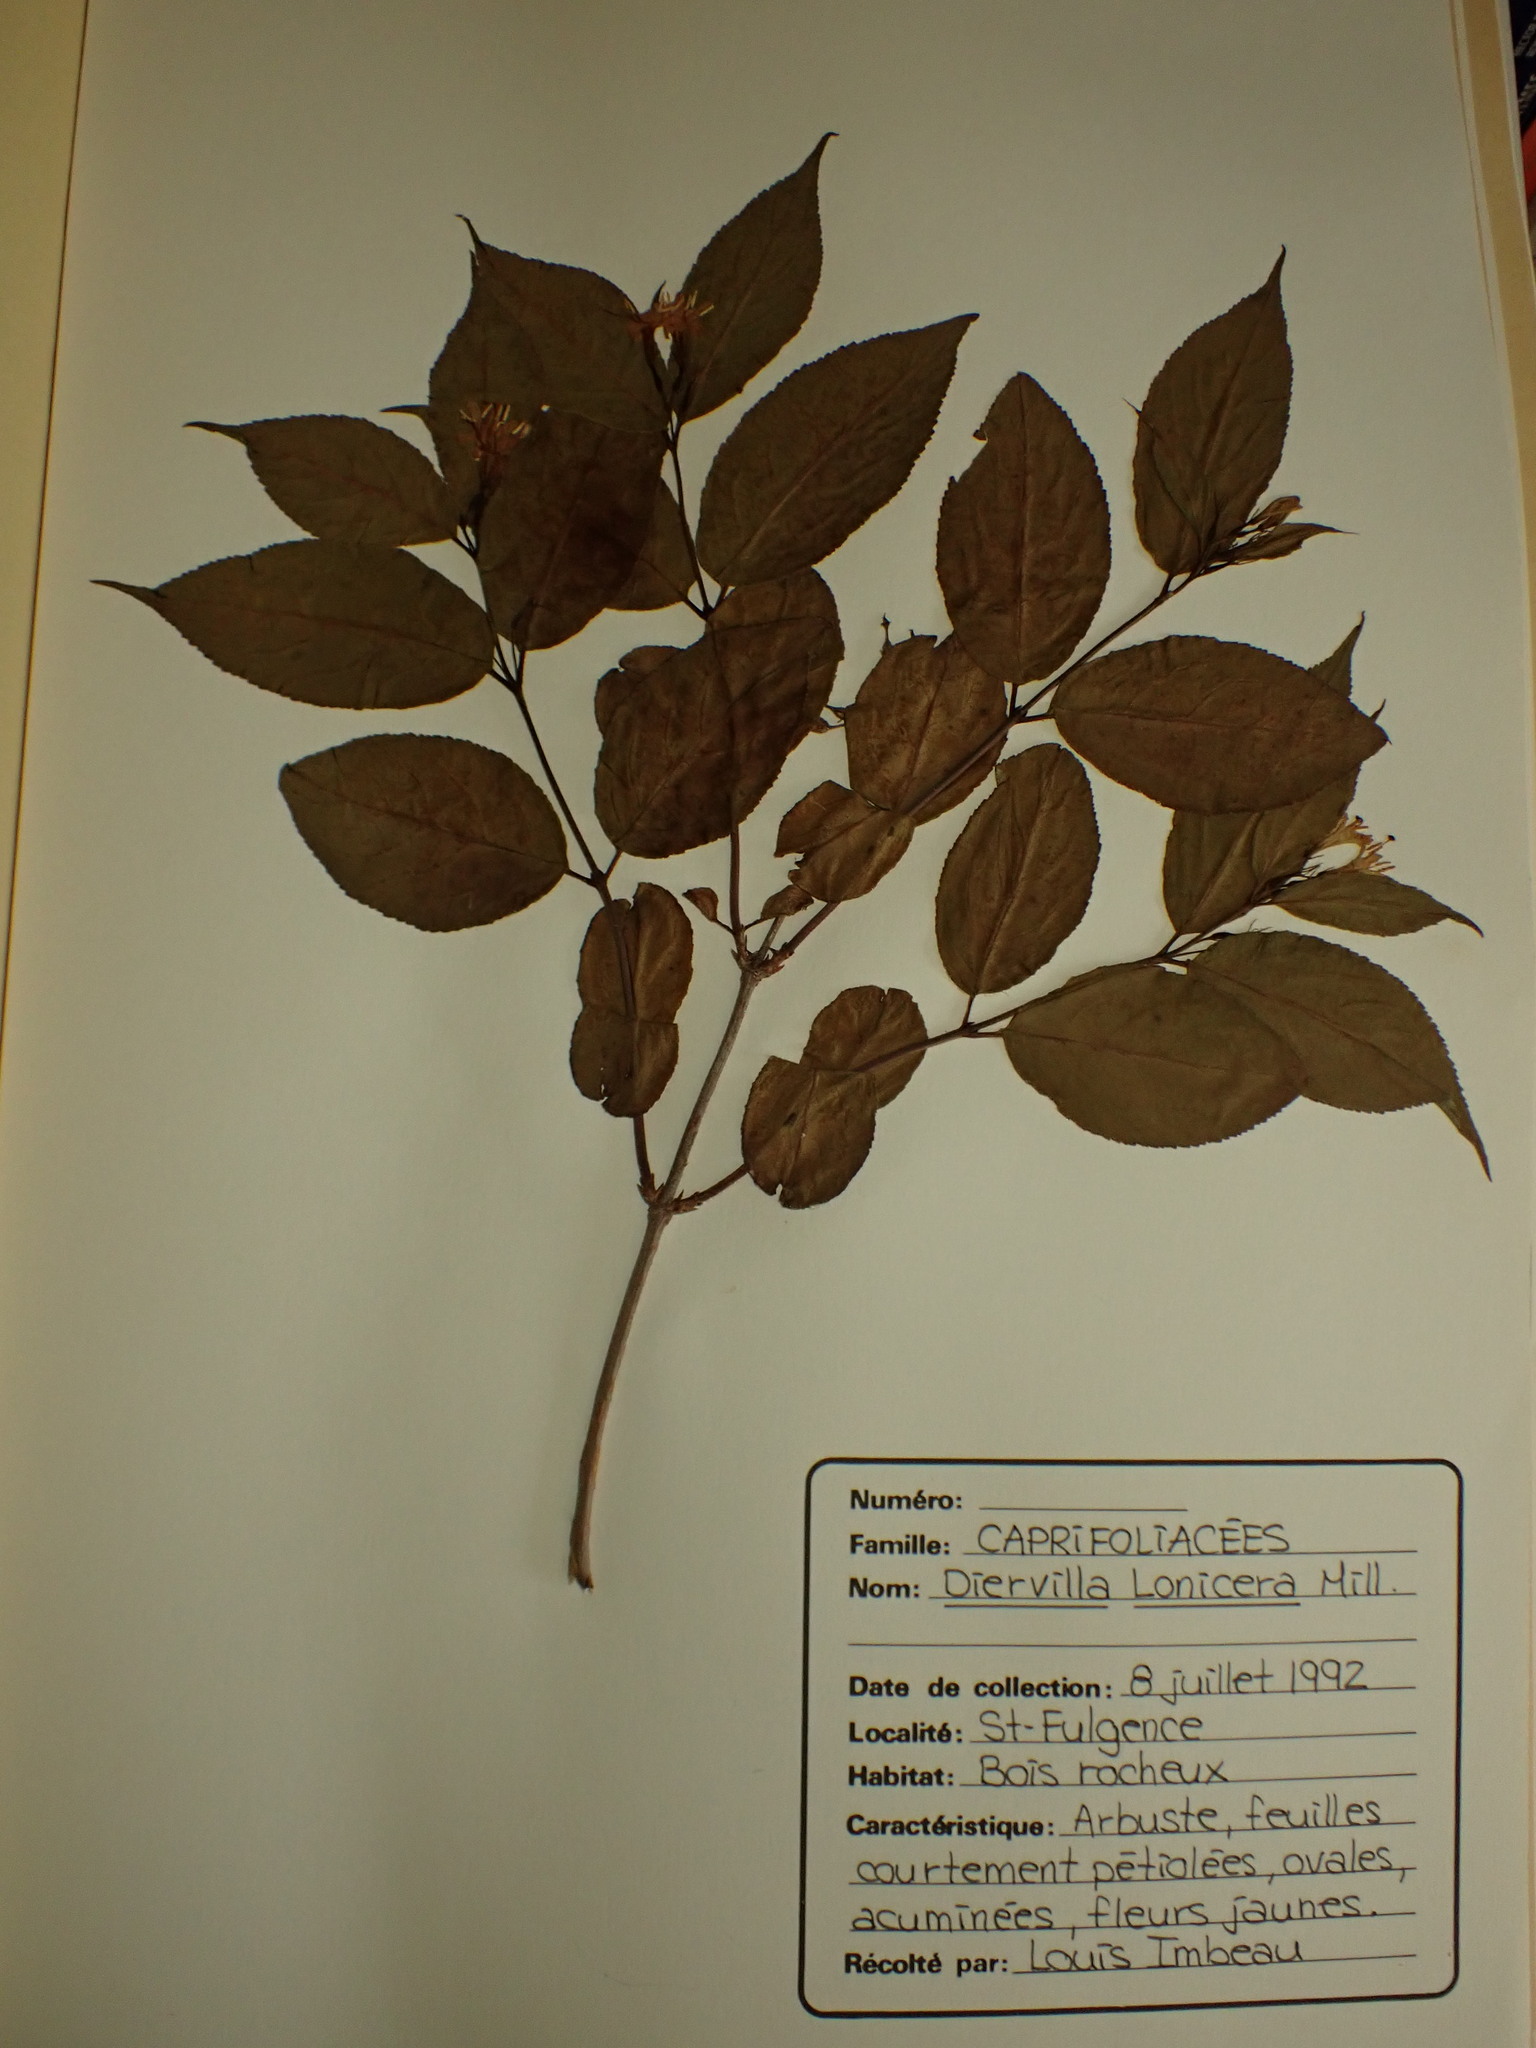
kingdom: Plantae
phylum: Tracheophyta
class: Magnoliopsida
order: Dipsacales
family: Caprifoliaceae
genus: Diervilla
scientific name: Diervilla lonicera
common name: Bush-honeysuckle
